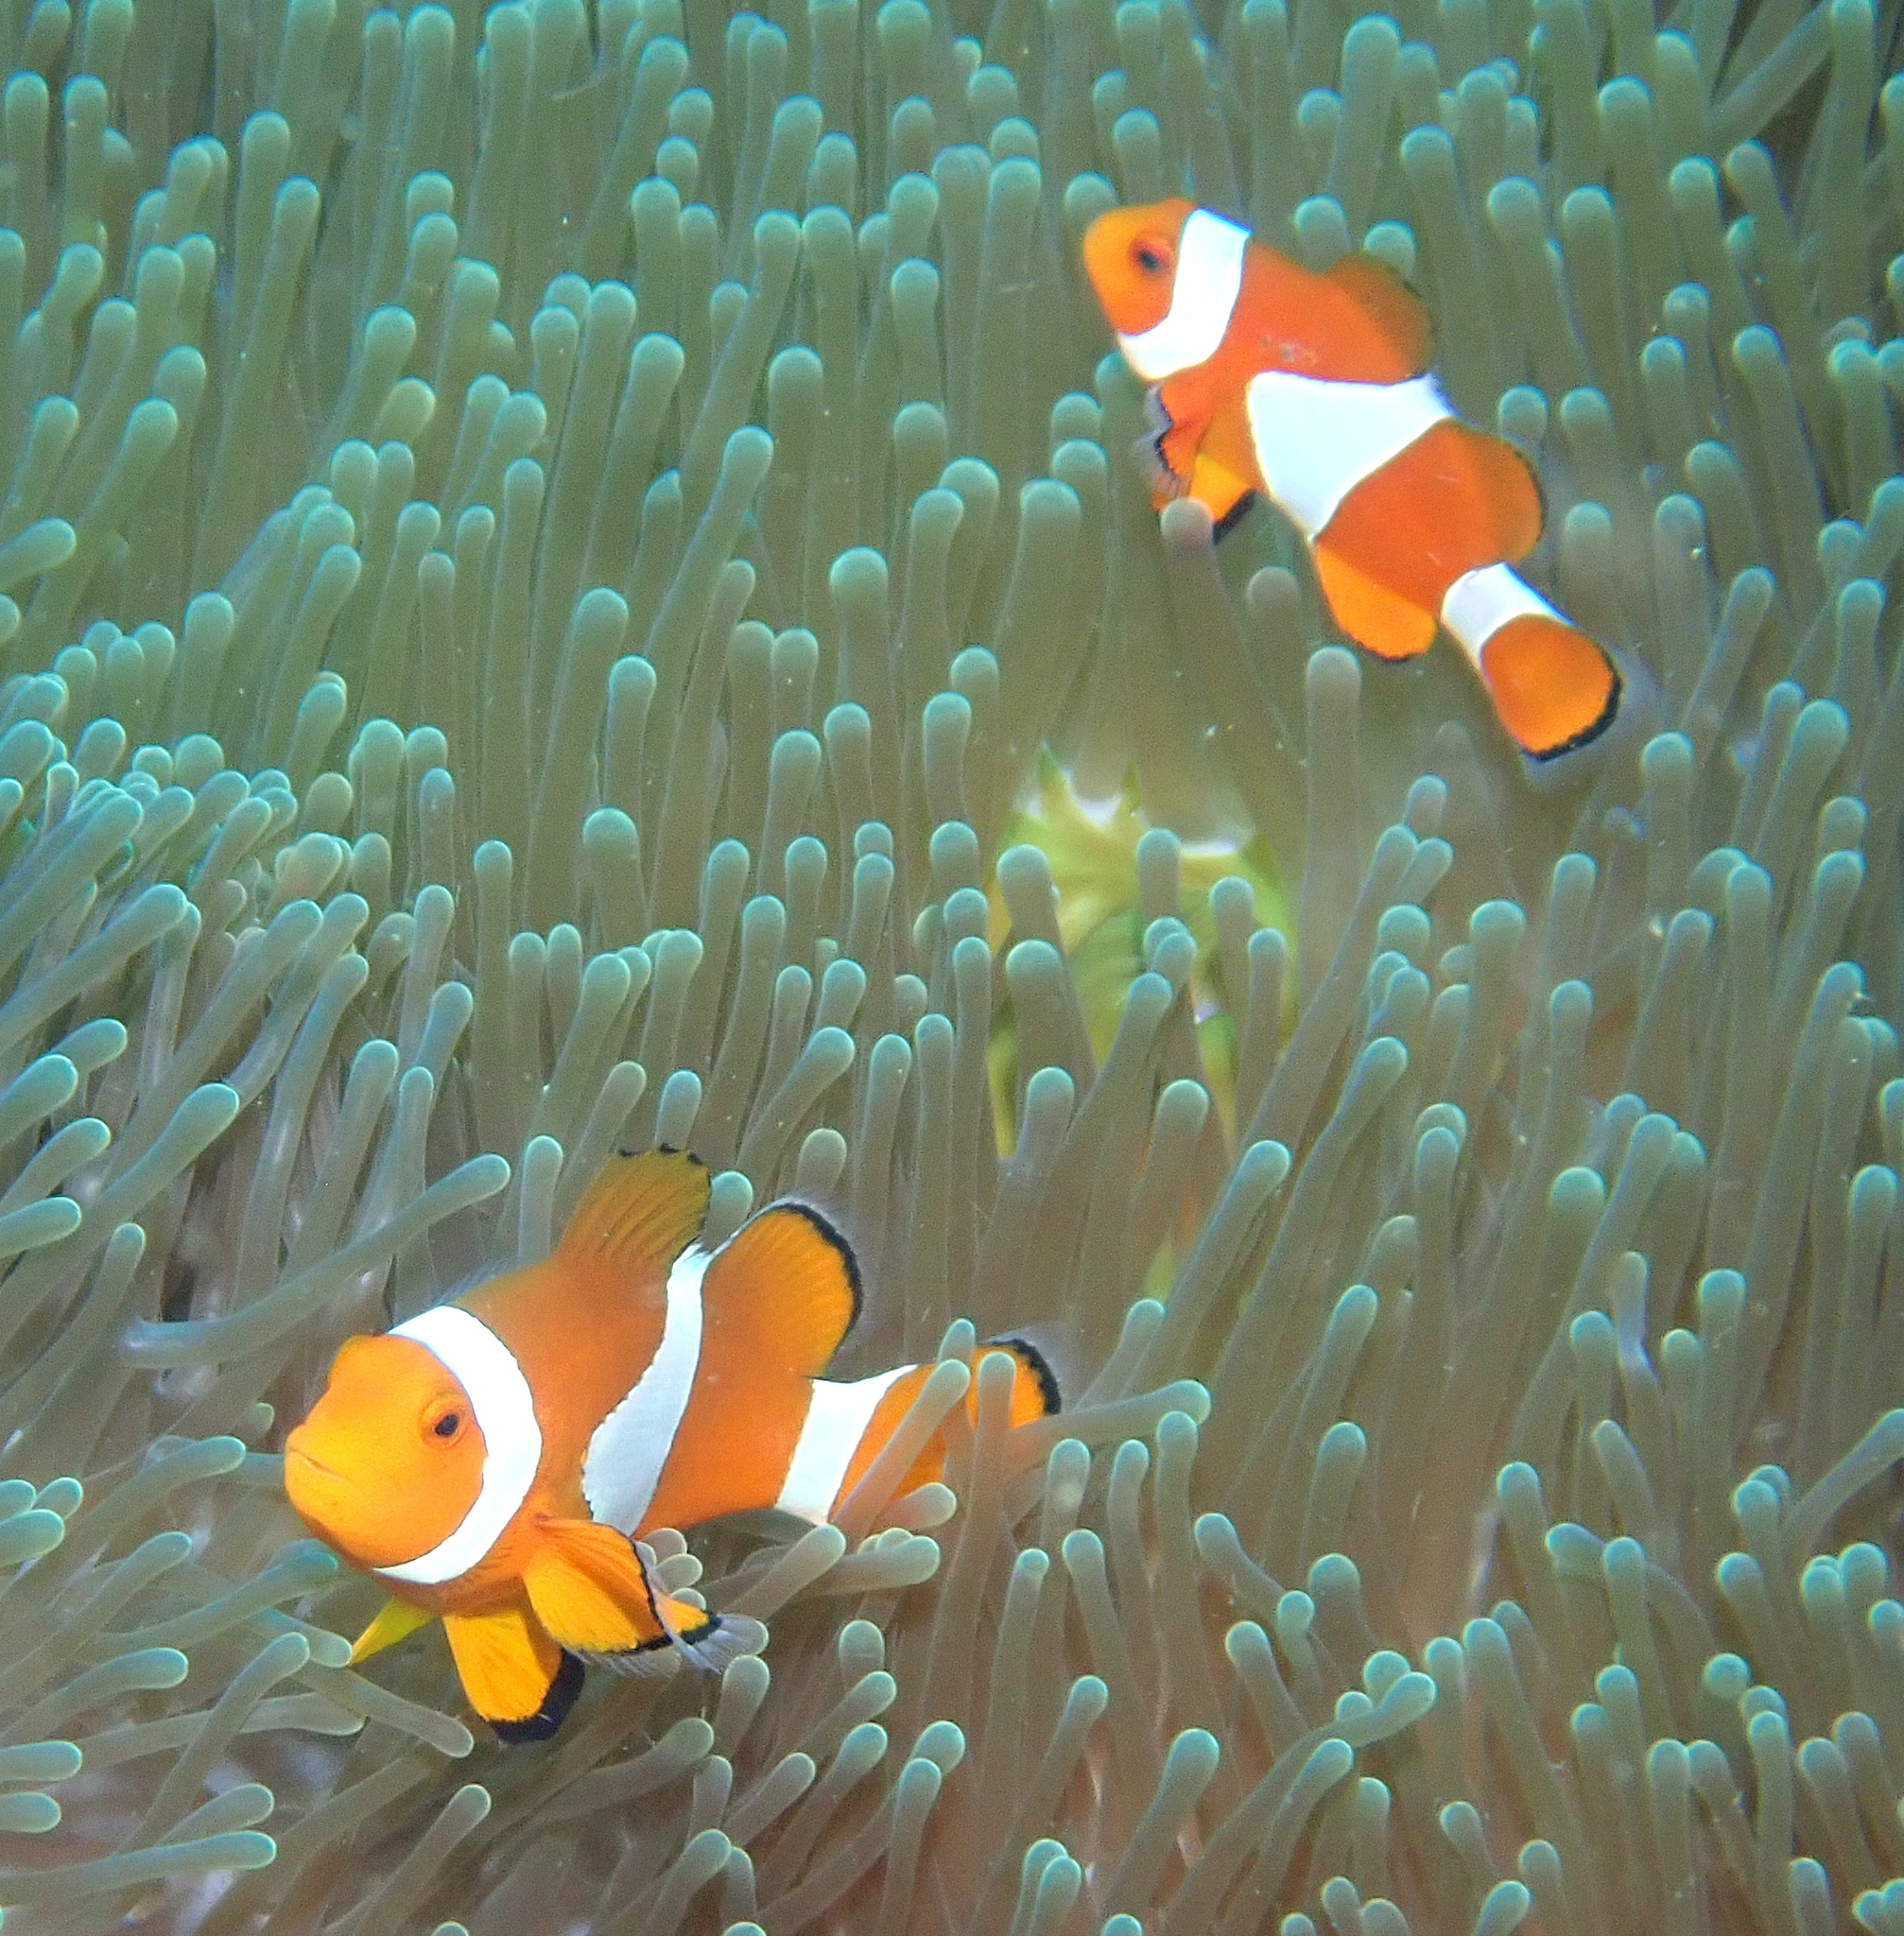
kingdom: Animalia
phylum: Chordata
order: Perciformes
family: Pomacentridae
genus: Amphiprion
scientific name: Amphiprion ocellaris
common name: Clown anemonefish
